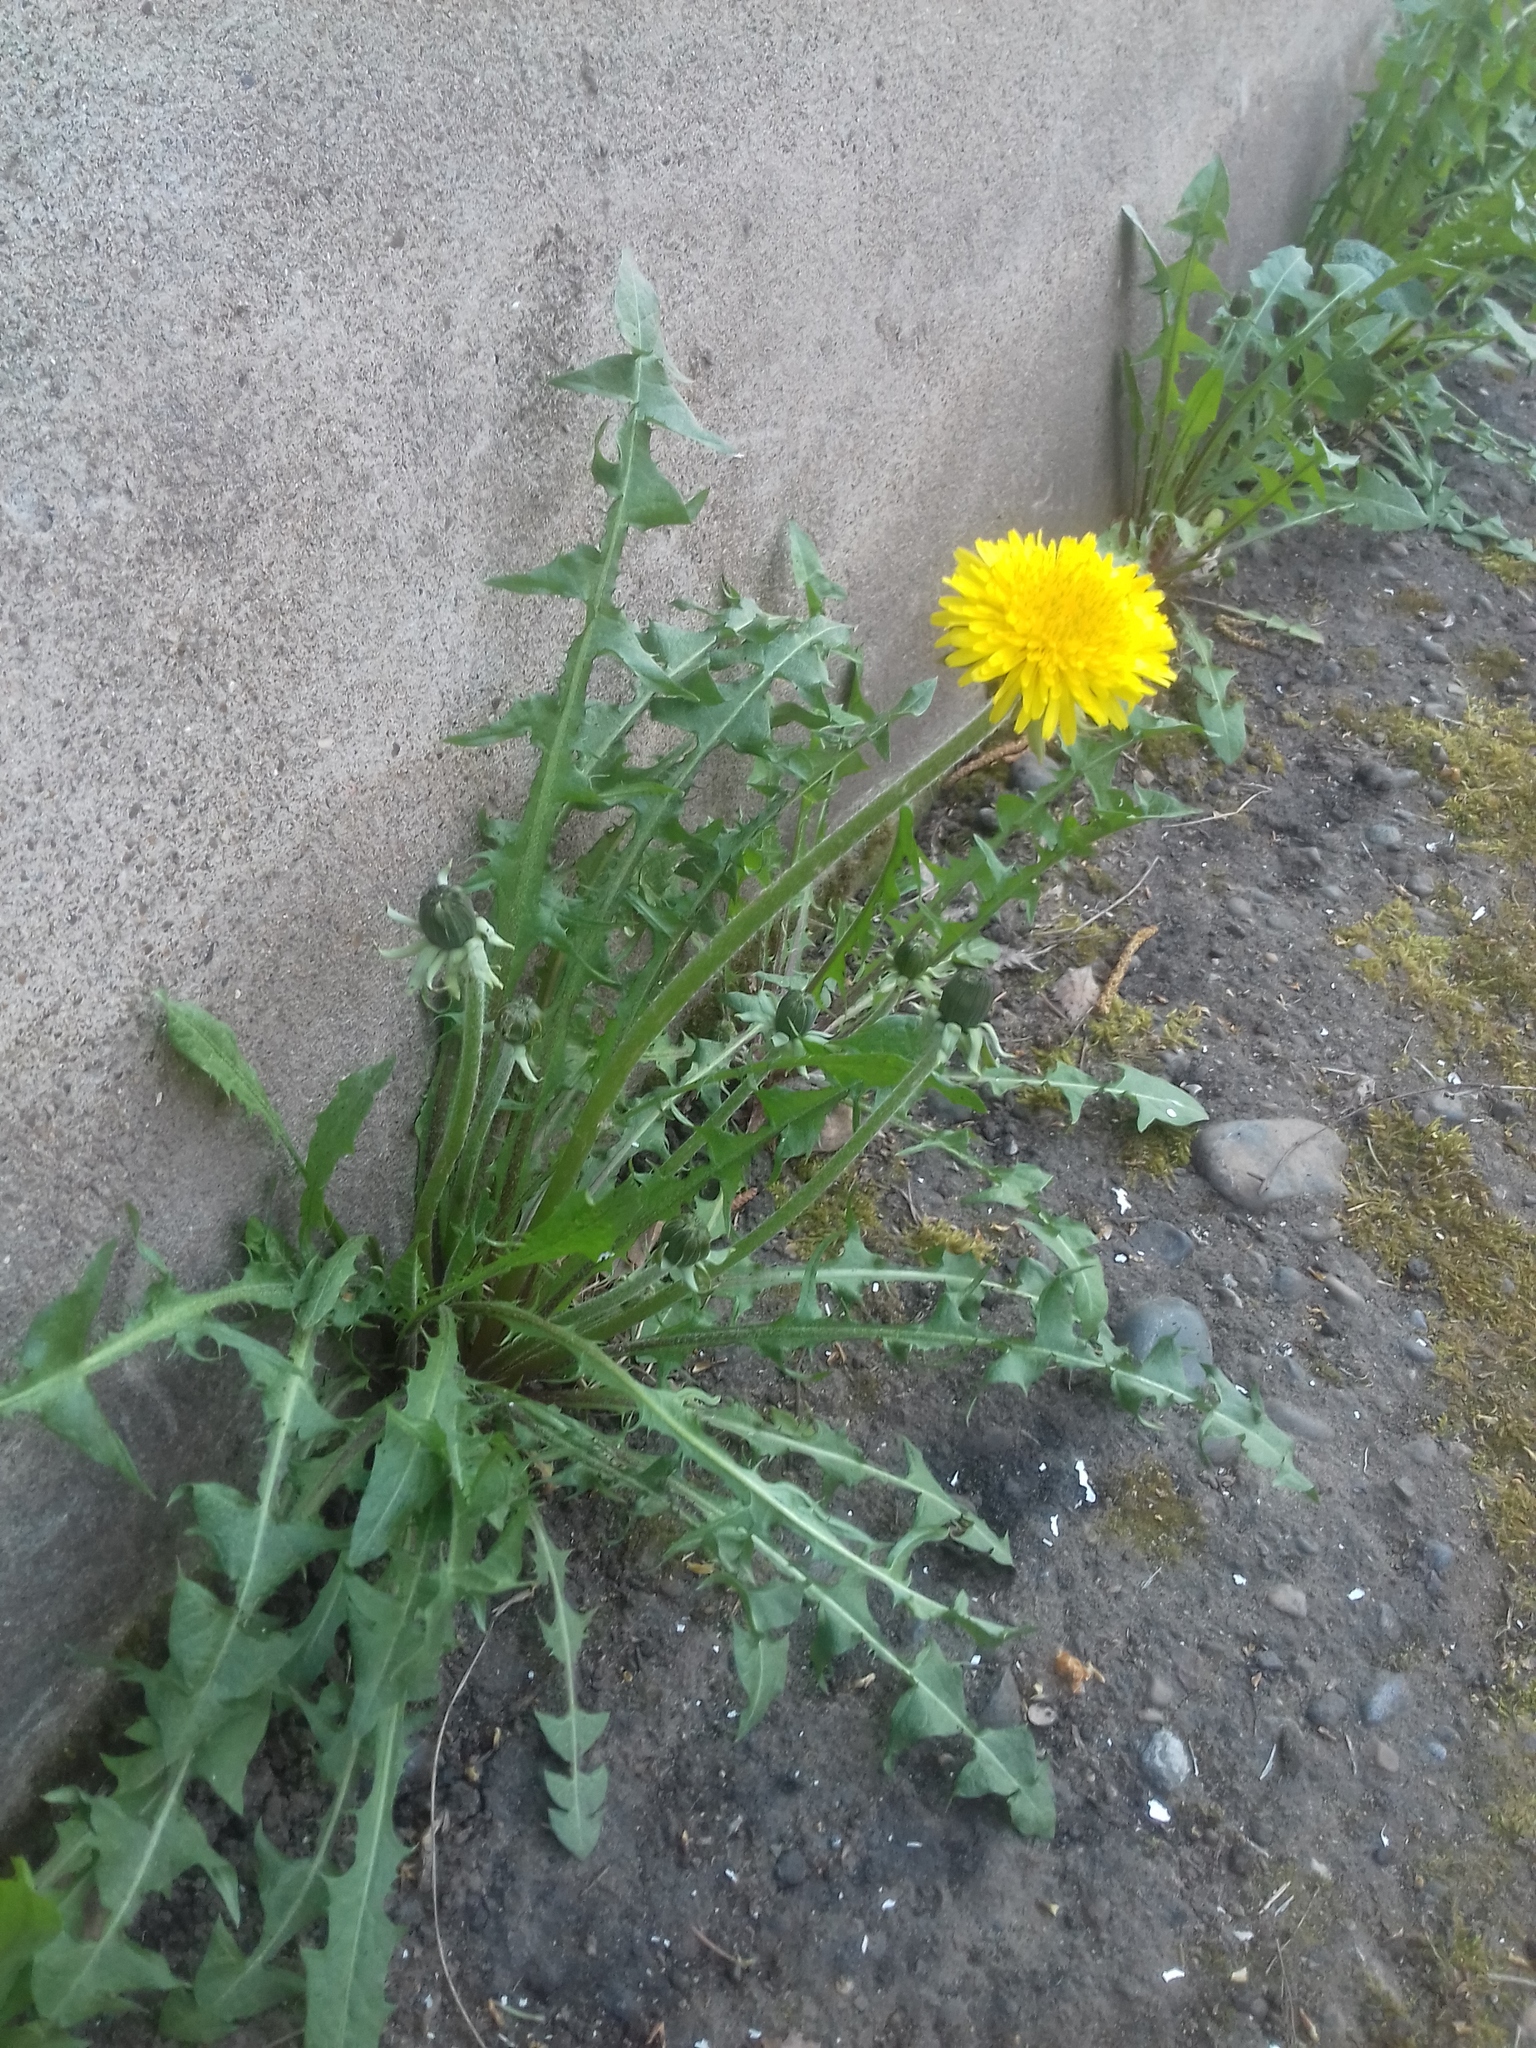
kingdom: Plantae
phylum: Tracheophyta
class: Magnoliopsida
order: Asterales
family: Asteraceae
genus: Taraxacum
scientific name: Taraxacum officinale
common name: Common dandelion
